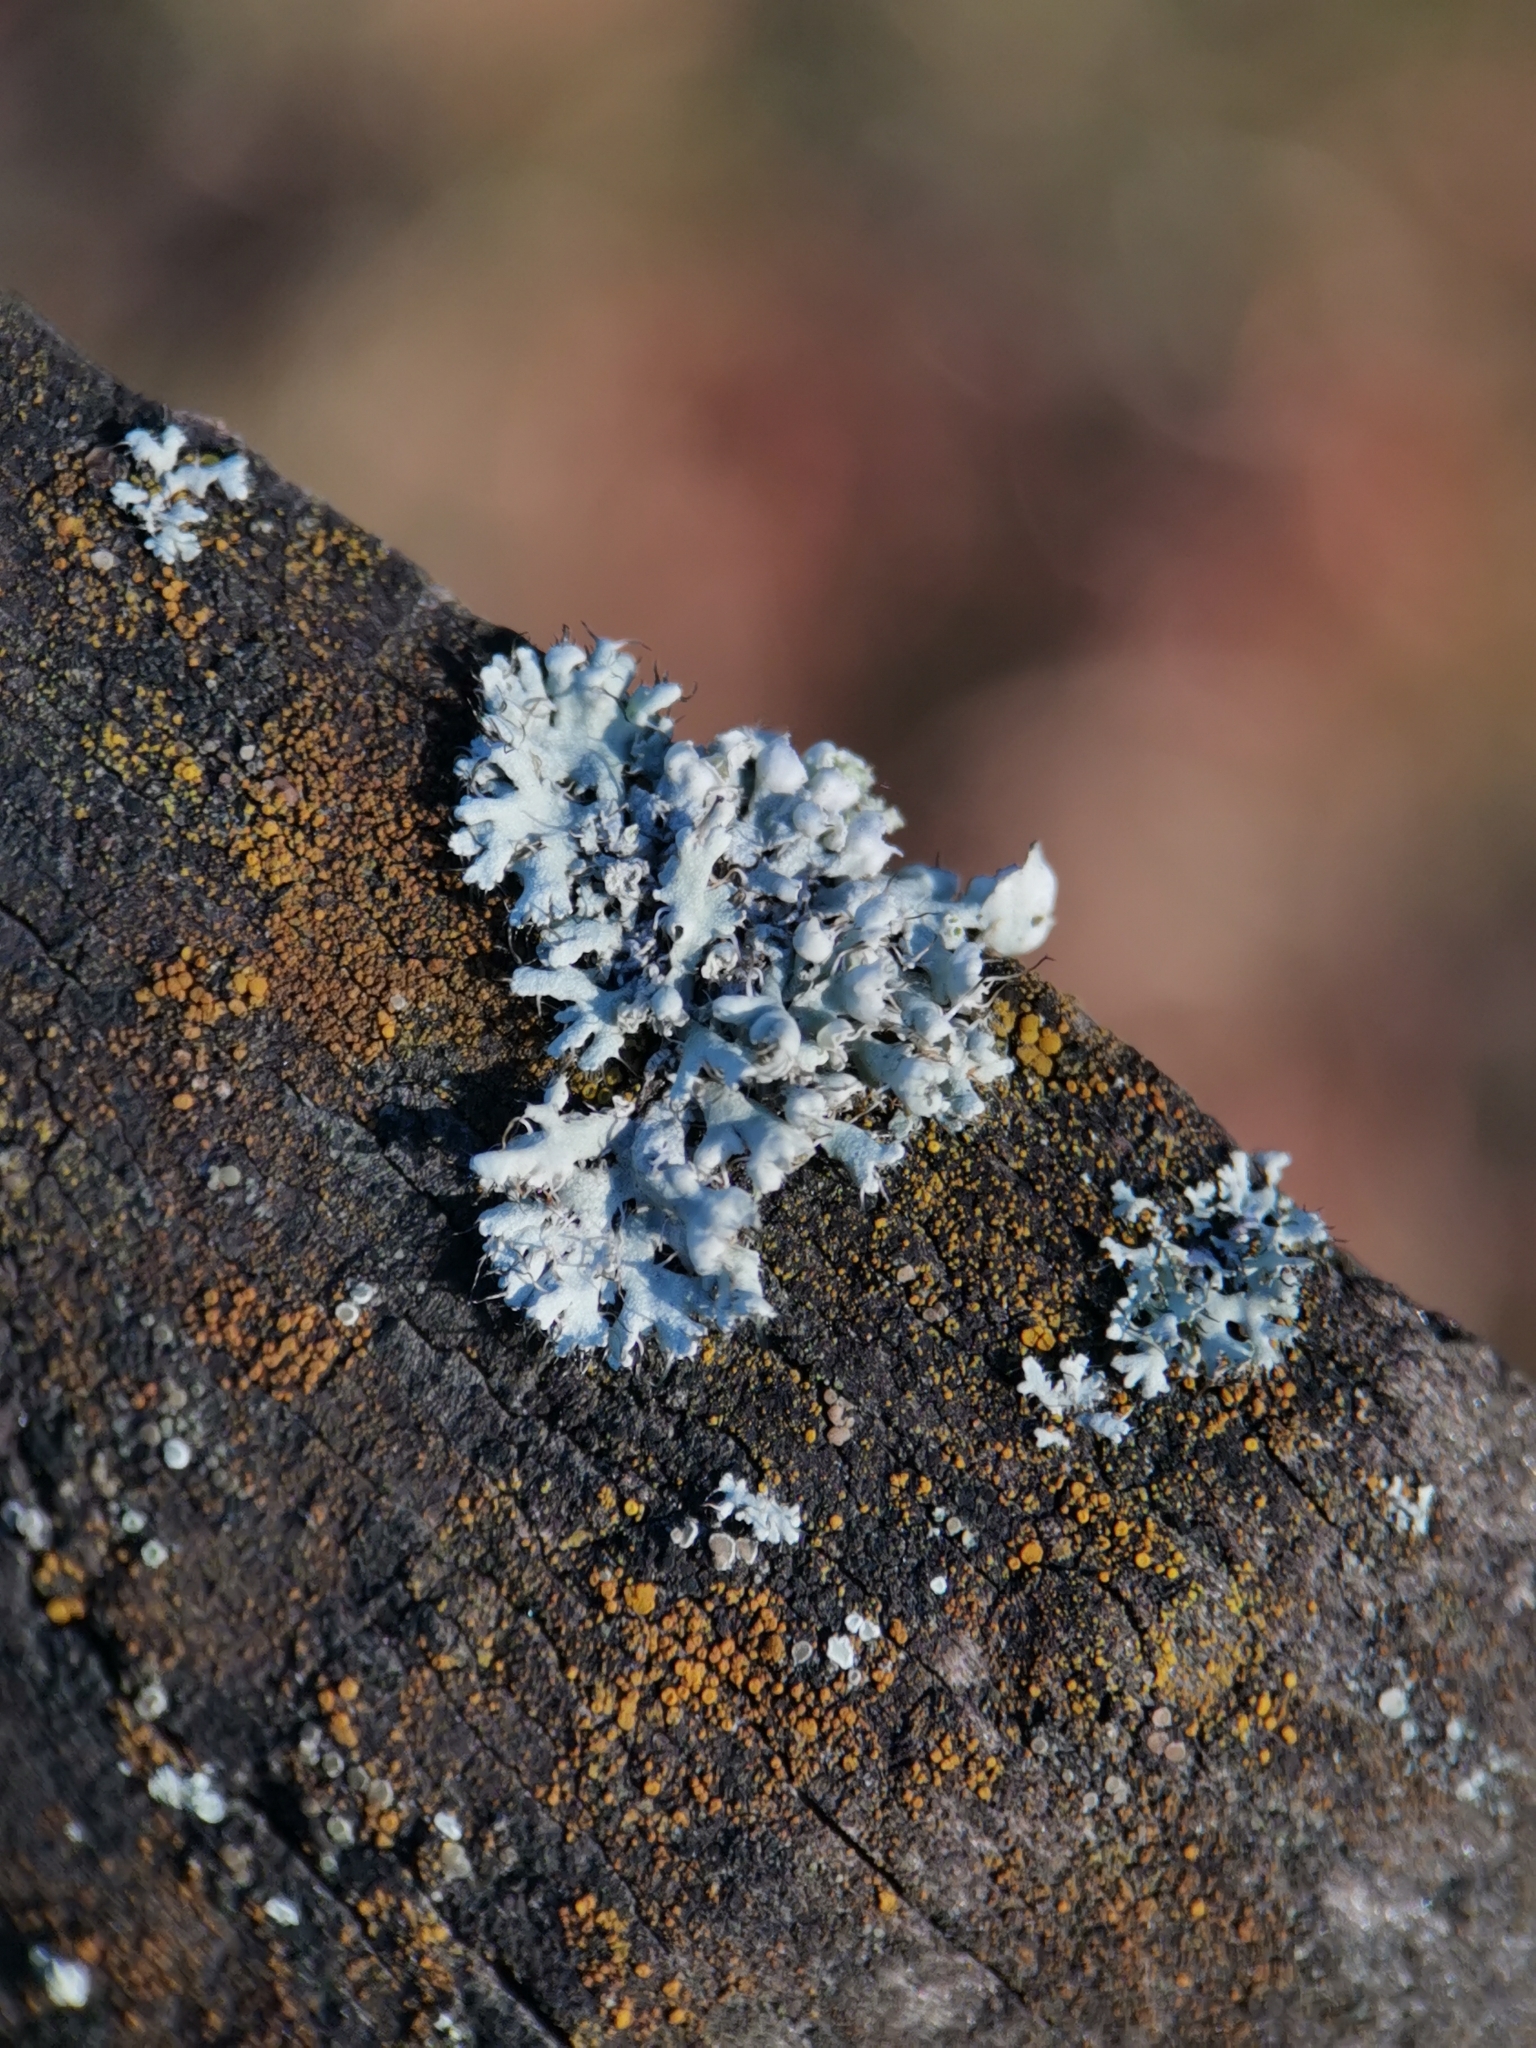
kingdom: Fungi
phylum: Ascomycota
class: Lecanoromycetes
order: Caliciales
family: Physciaceae
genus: Physcia
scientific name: Physcia adscendens
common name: Hooded rosette lichen
